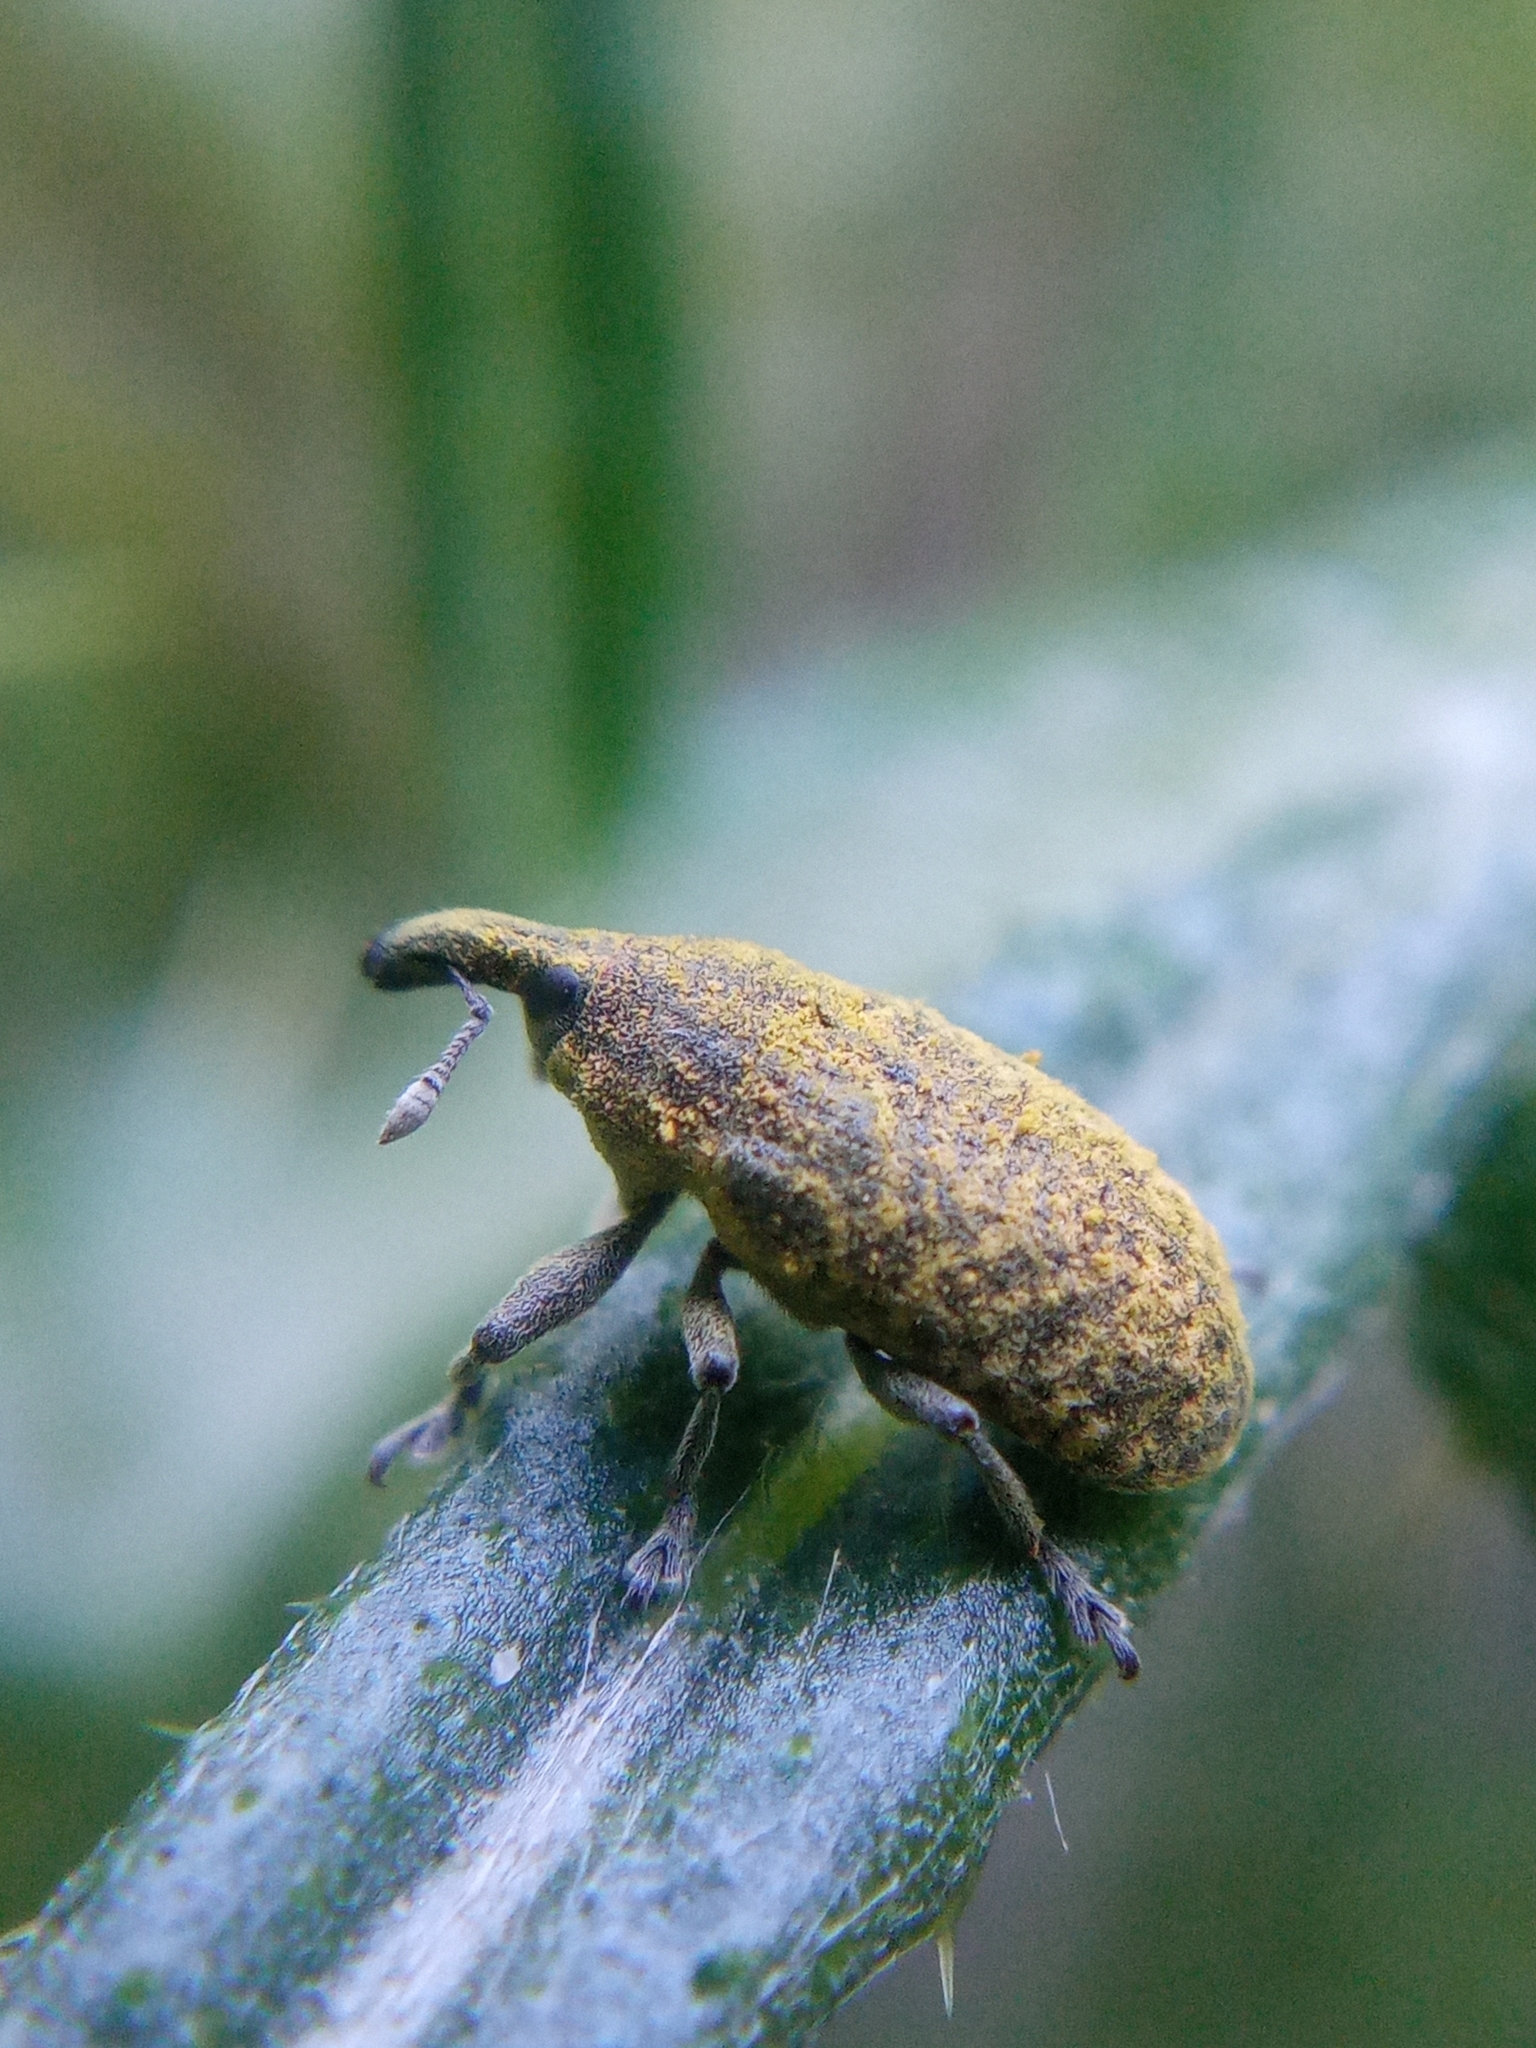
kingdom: Animalia
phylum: Arthropoda
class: Insecta
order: Coleoptera
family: Curculionidae
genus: Larinus
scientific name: Larinus carlinae
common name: Weevil
